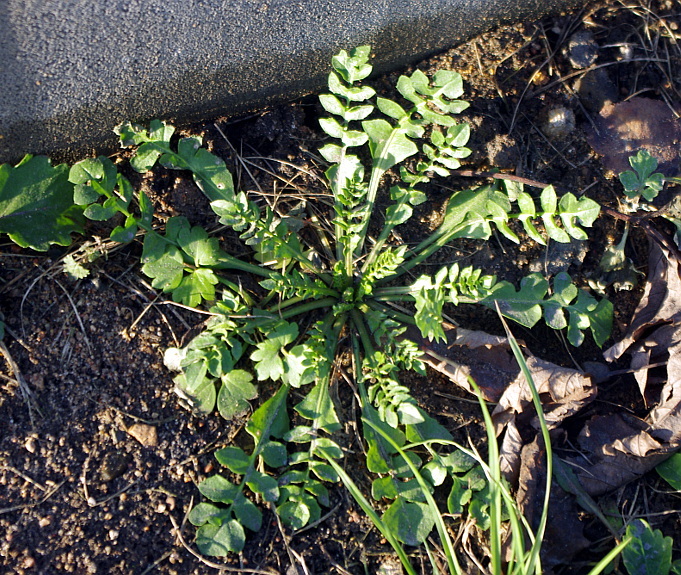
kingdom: Plantae
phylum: Tracheophyta
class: Magnoliopsida
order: Brassicales
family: Brassicaceae
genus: Capsella
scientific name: Capsella bursa-pastoris
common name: Shepherd's purse
